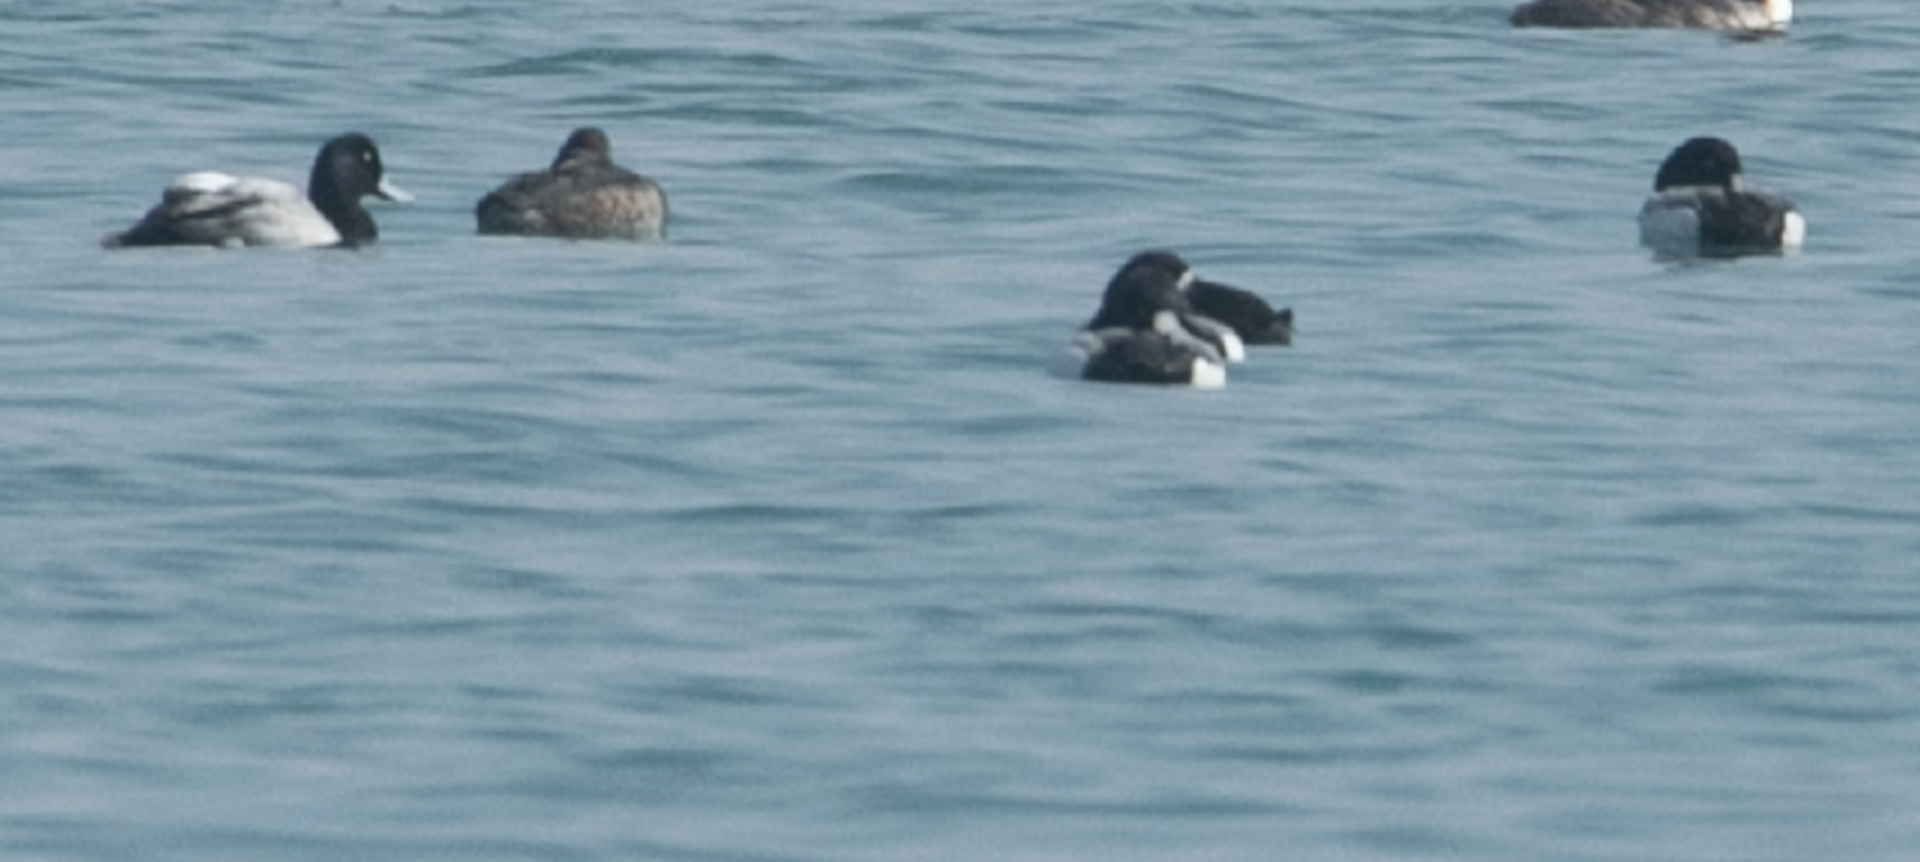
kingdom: Animalia
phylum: Chordata
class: Aves
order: Anseriformes
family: Anatidae
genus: Aythya
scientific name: Aythya marila
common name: Greater scaup
